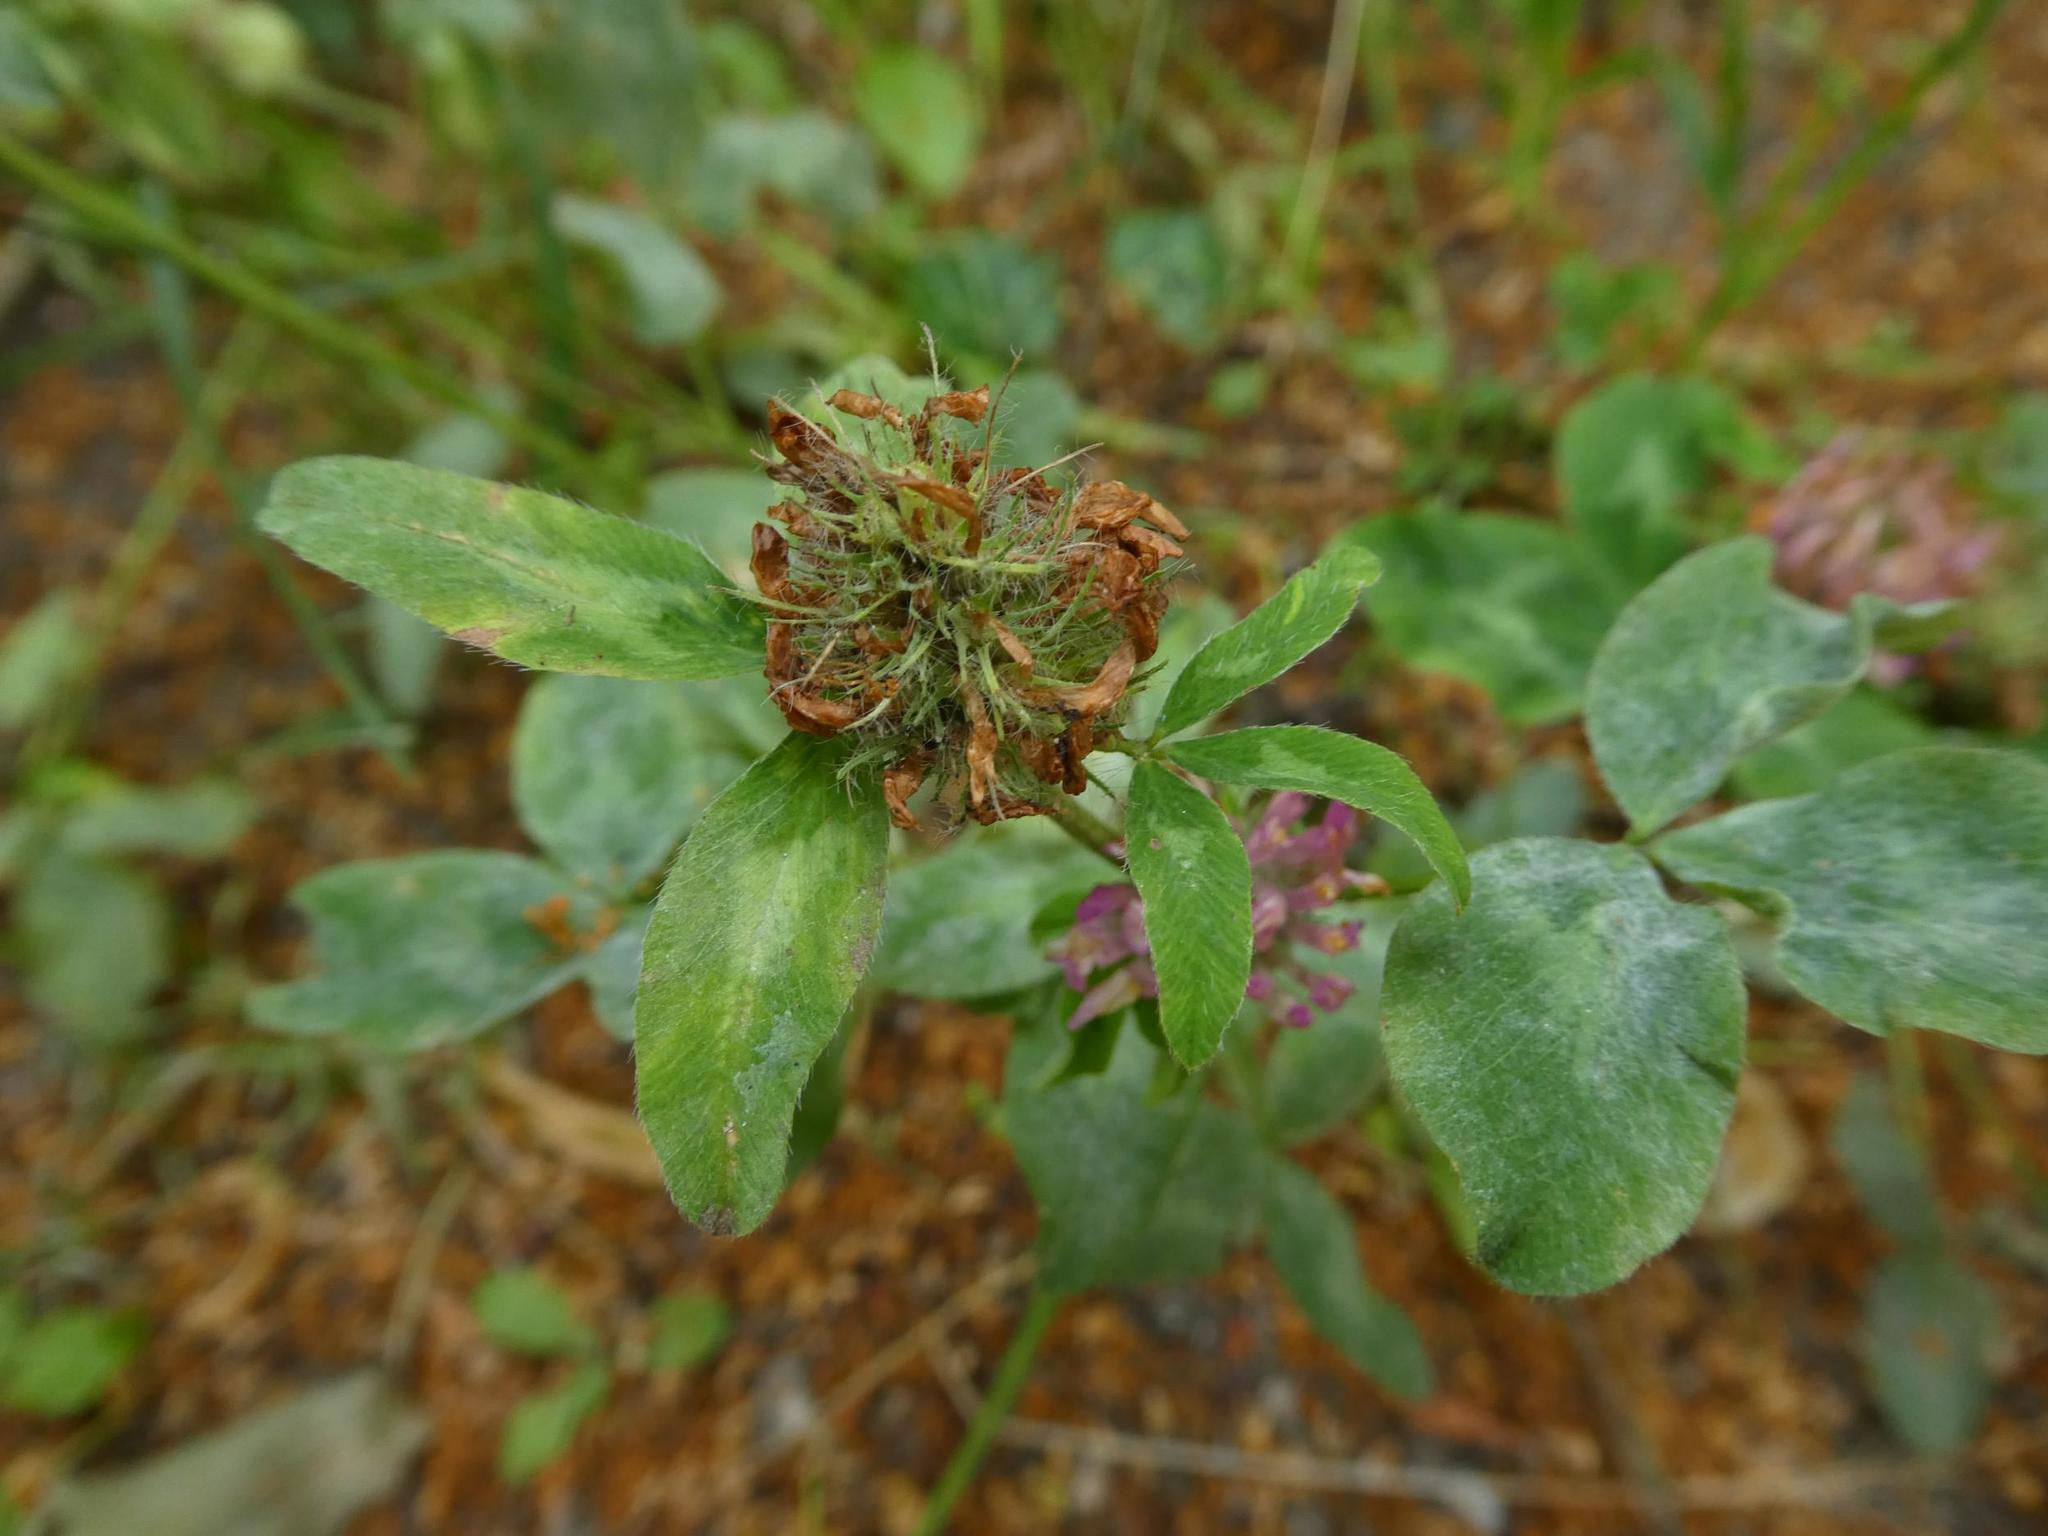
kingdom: Plantae
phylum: Tracheophyta
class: Magnoliopsida
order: Fabales
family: Fabaceae
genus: Trifolium
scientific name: Trifolium pratense
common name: Red clover
